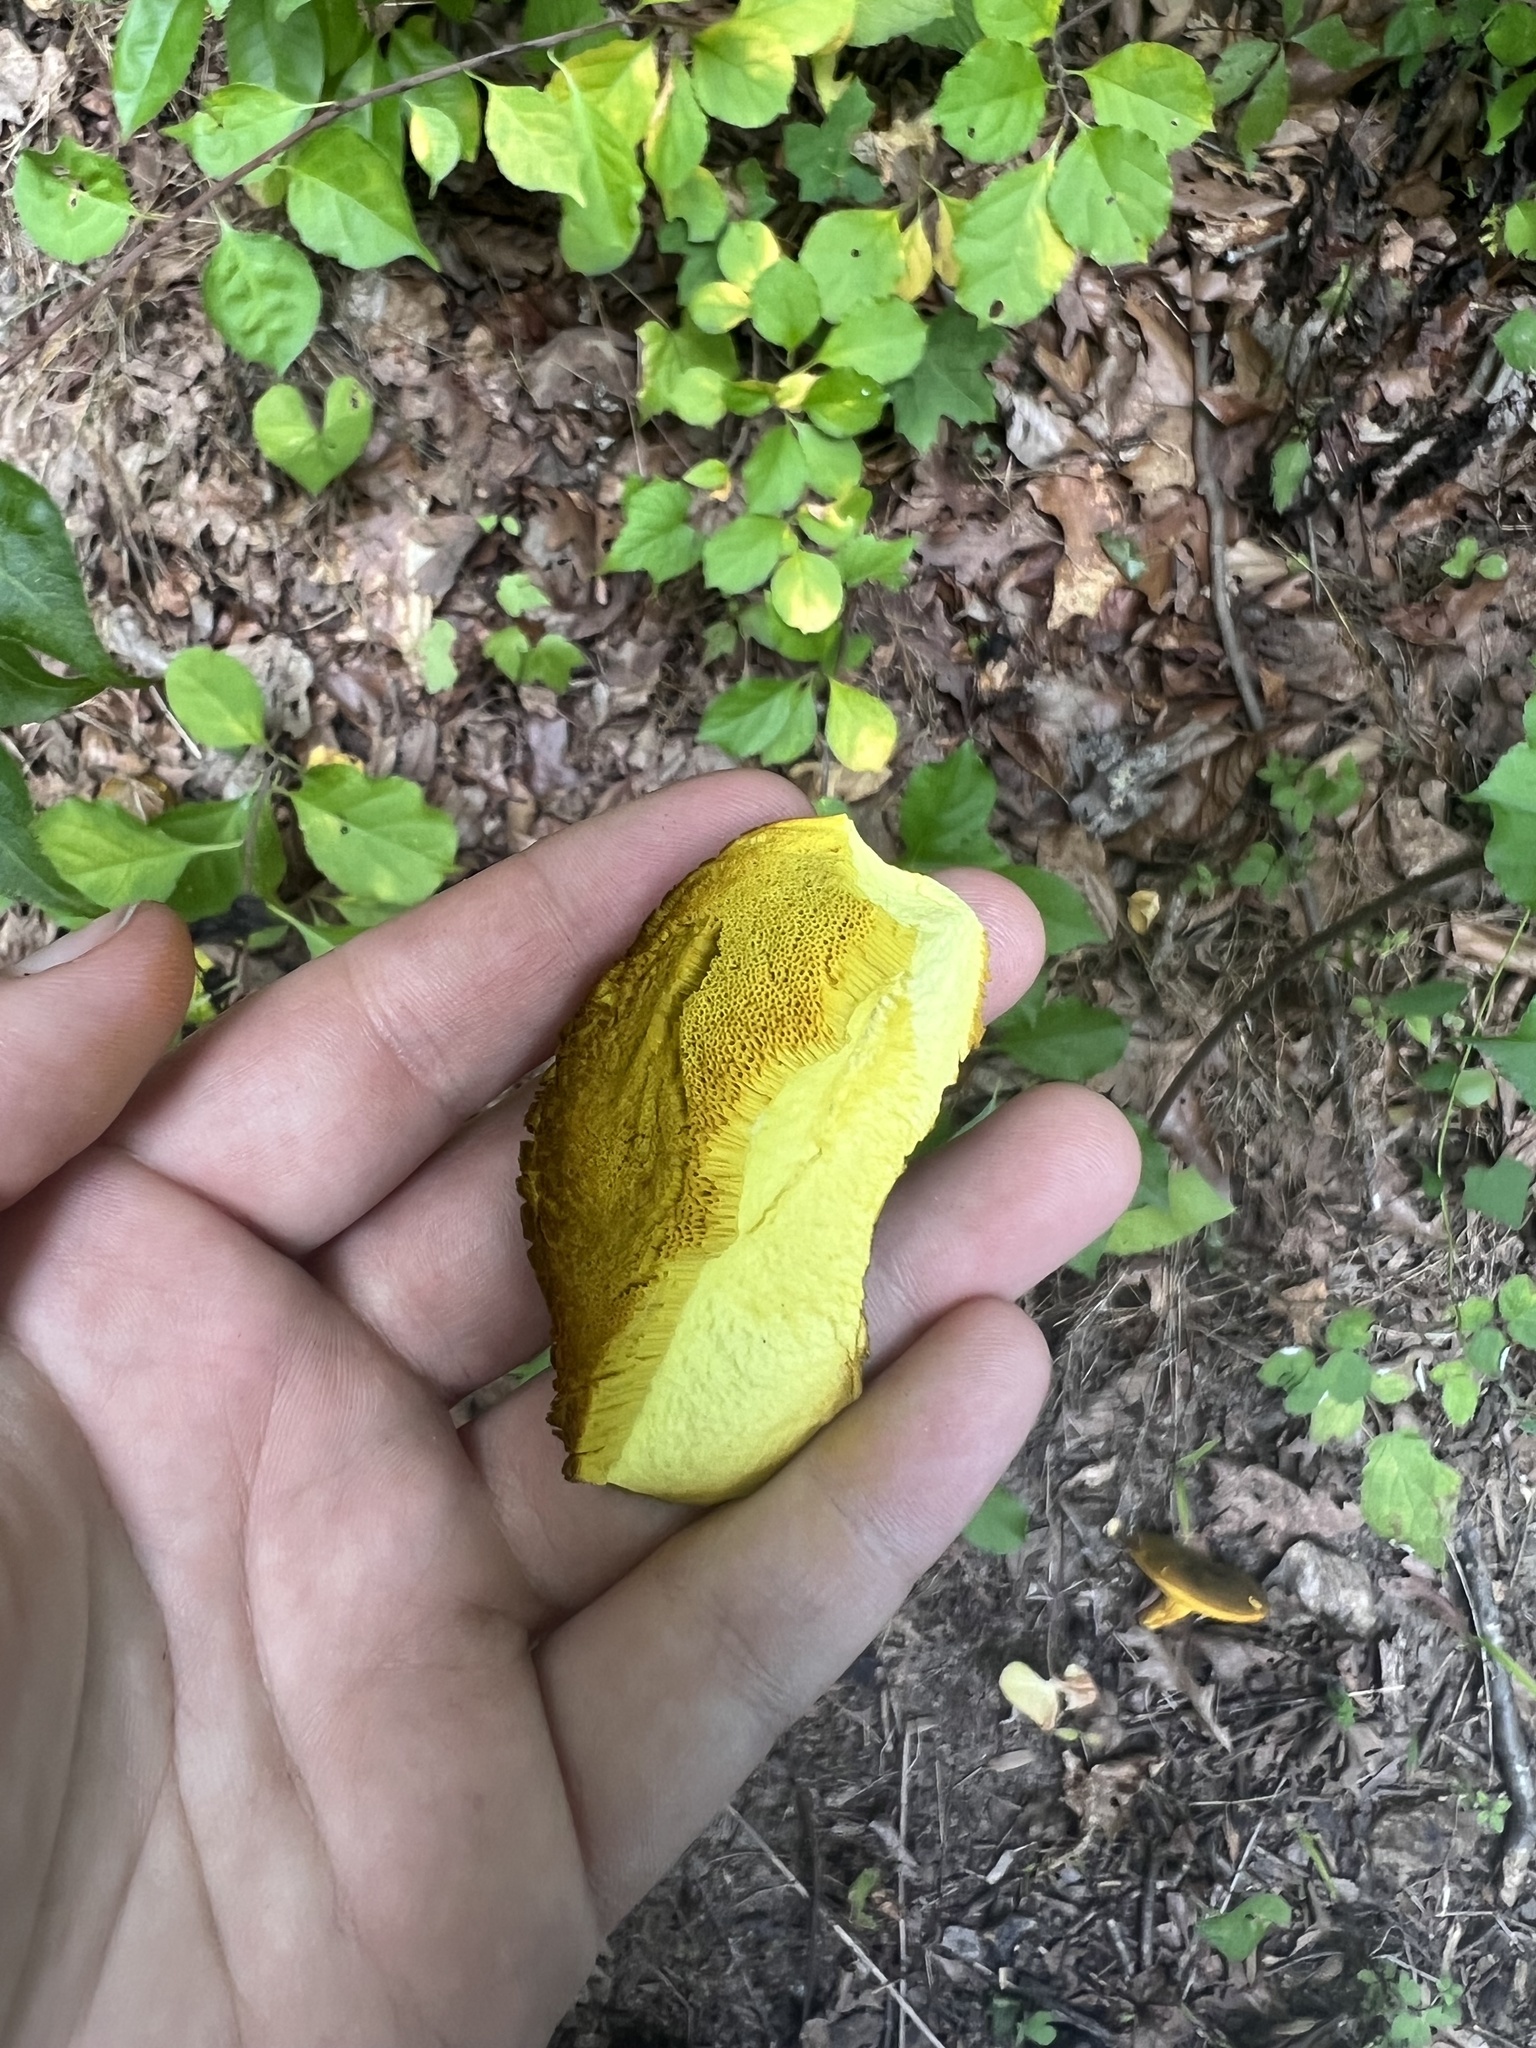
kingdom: Fungi
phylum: Basidiomycota
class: Agaricomycetes
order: Boletales
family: Boletaceae
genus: Retiboletus
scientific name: Retiboletus ornatipes
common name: Ornate-stalked bolete
